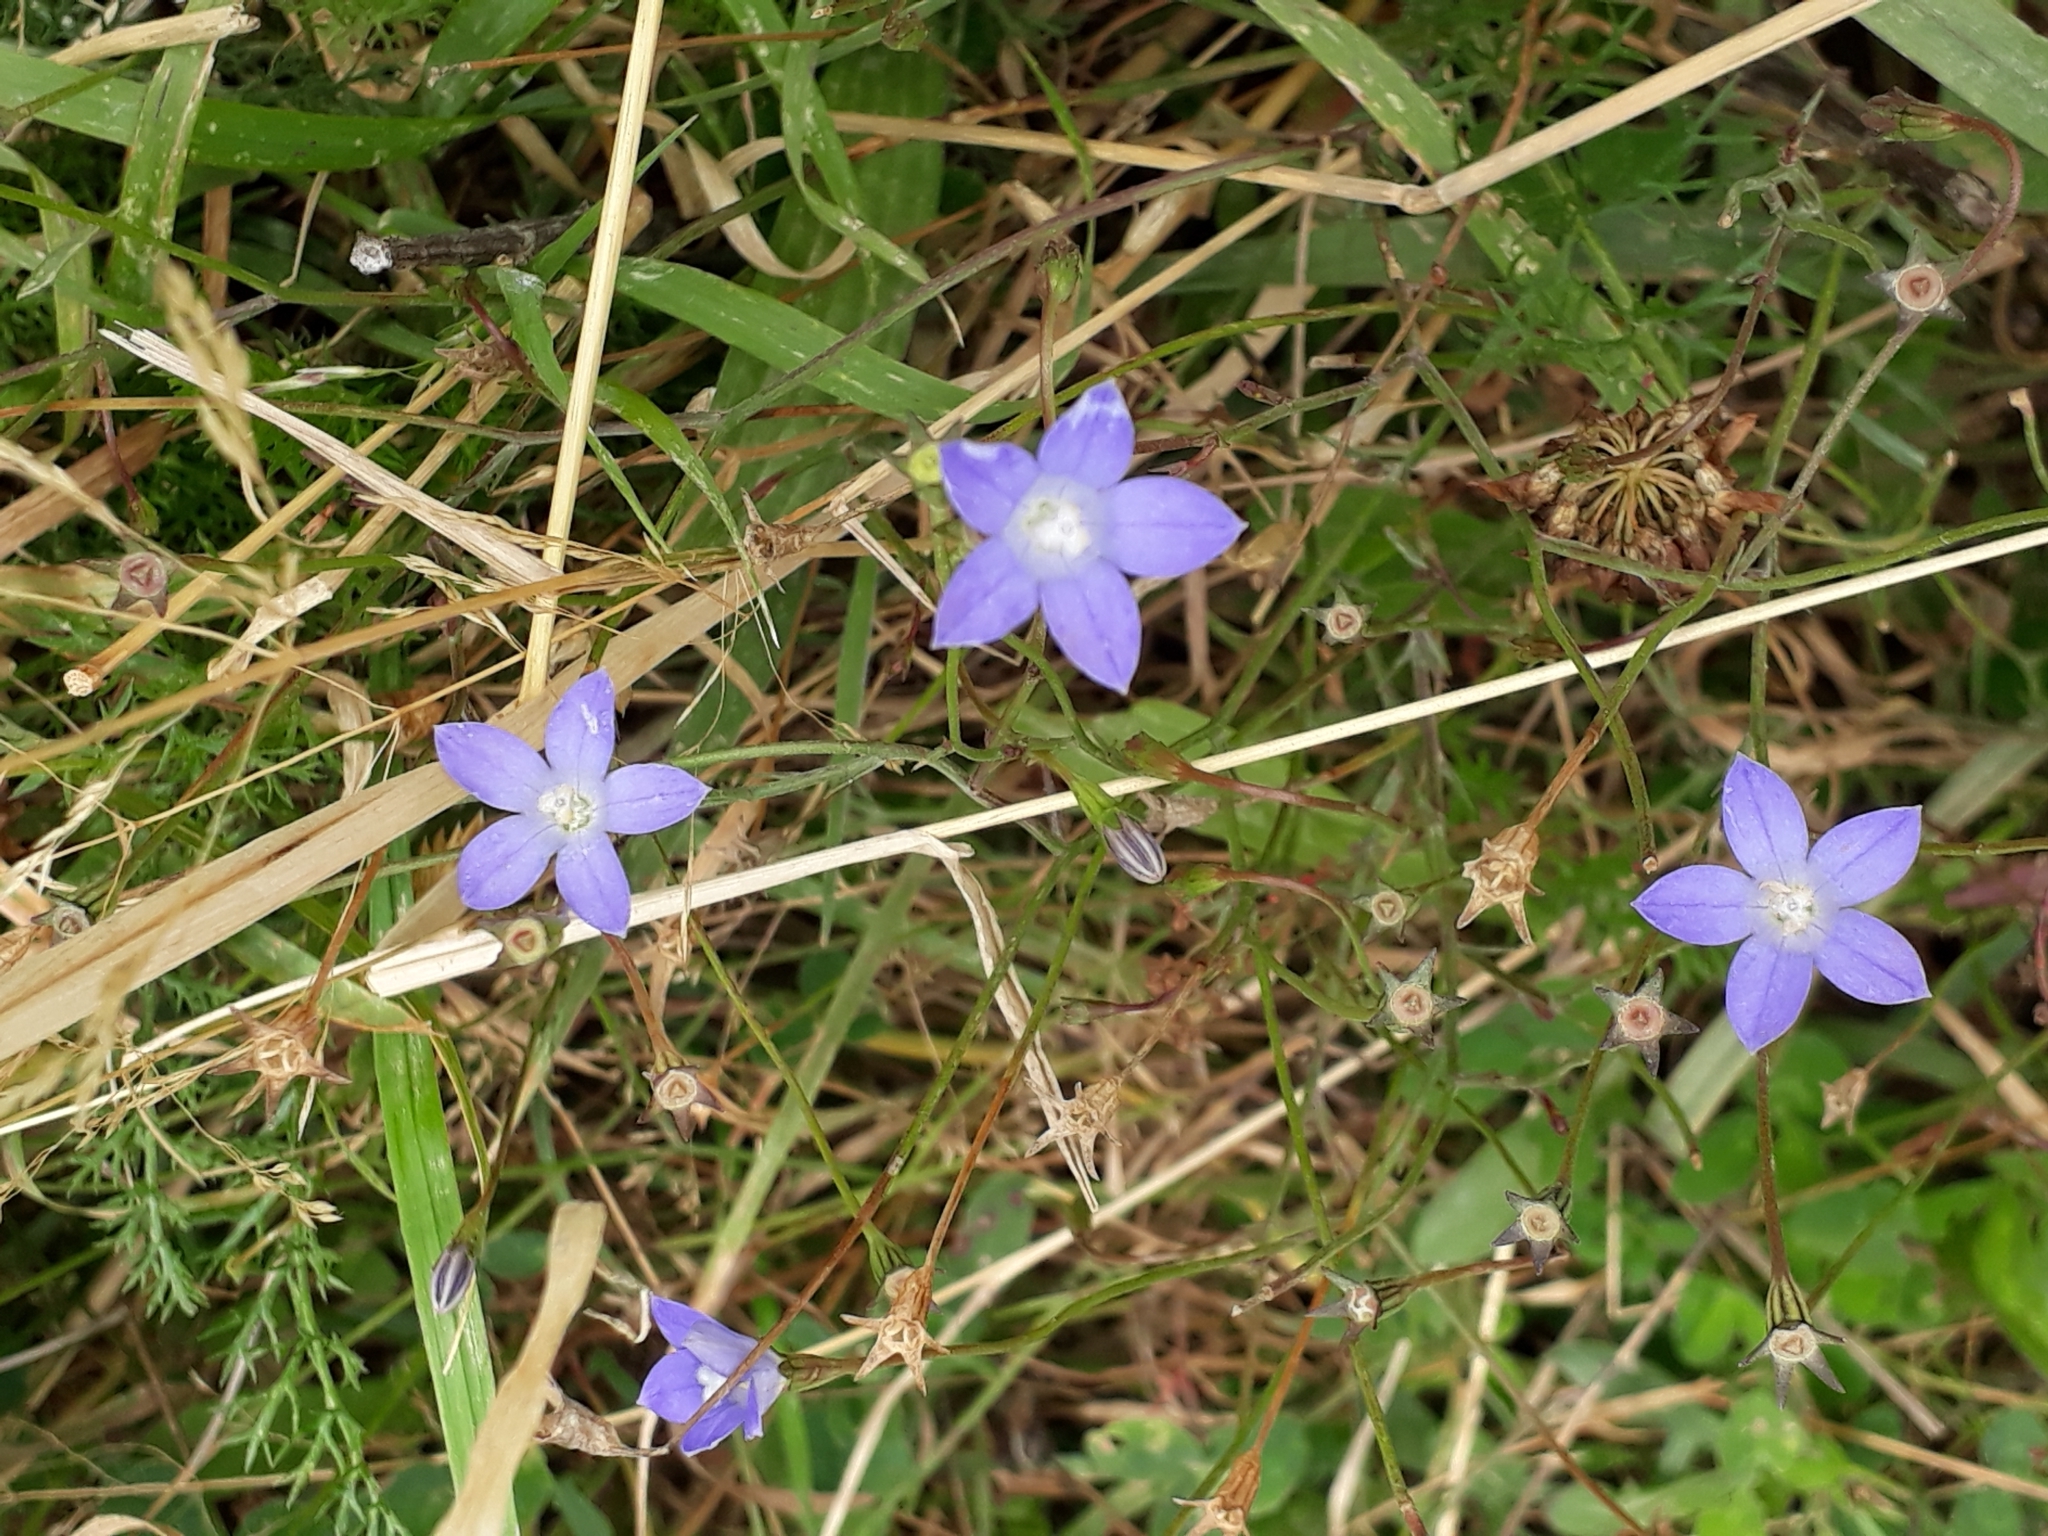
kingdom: Plantae
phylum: Tracheophyta
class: Magnoliopsida
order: Asterales
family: Campanulaceae
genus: Wahlenbergia
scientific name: Wahlenbergia violacea
